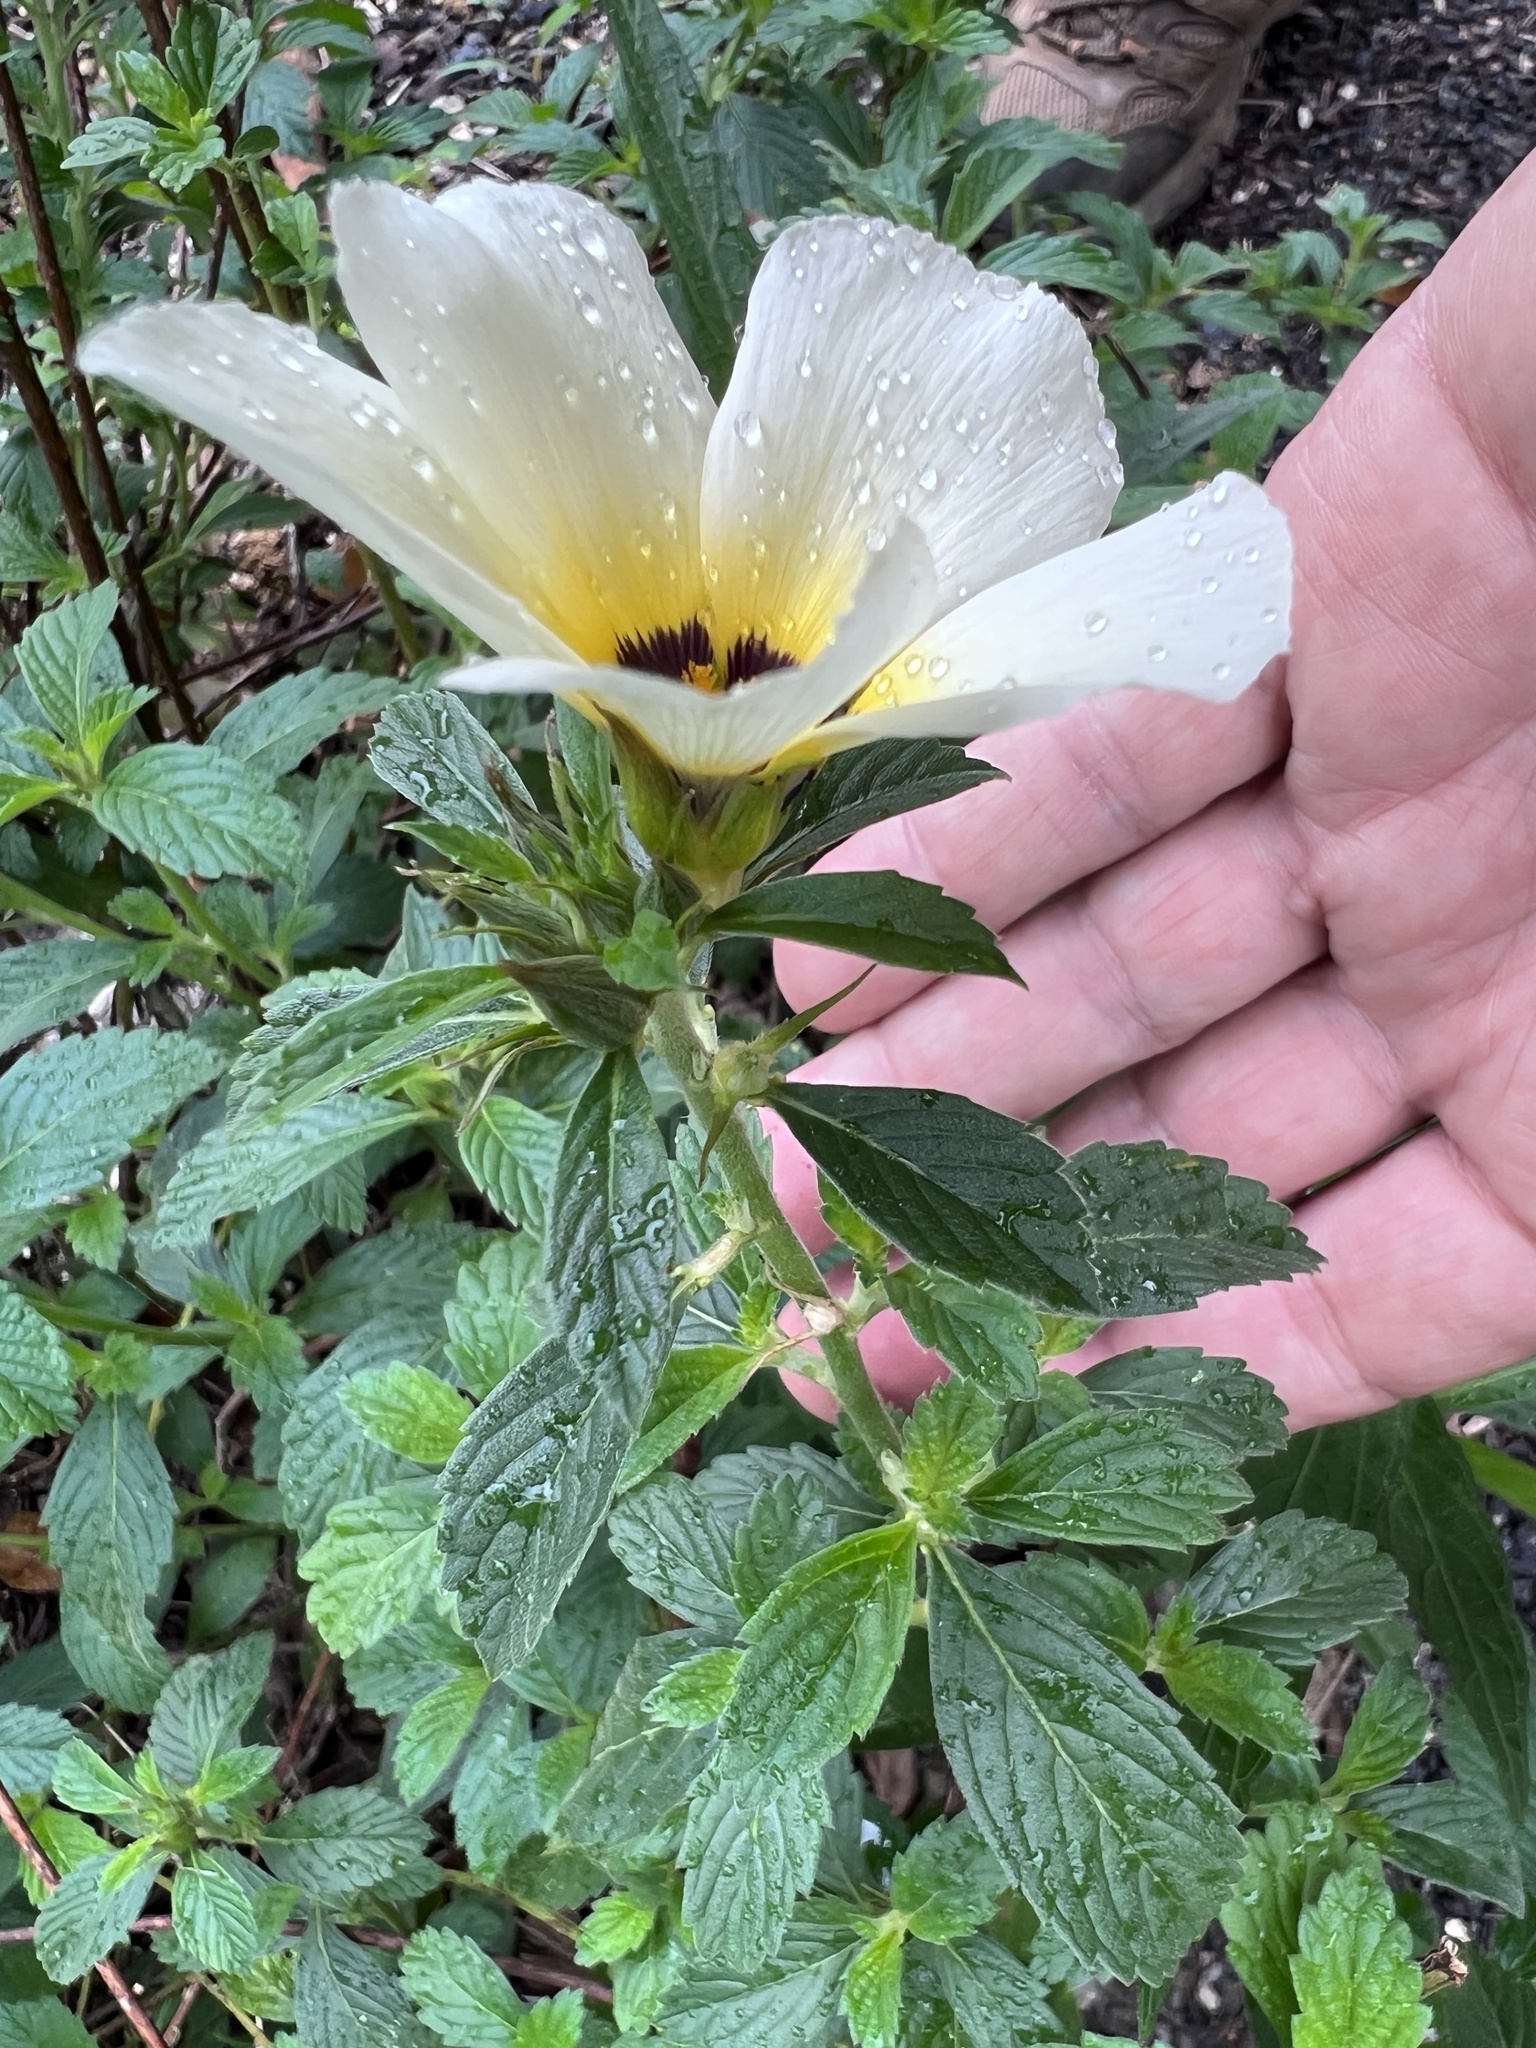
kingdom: Plantae
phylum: Tracheophyta
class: Magnoliopsida
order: Malpighiales
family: Turneraceae
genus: Turnera
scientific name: Turnera subulata
